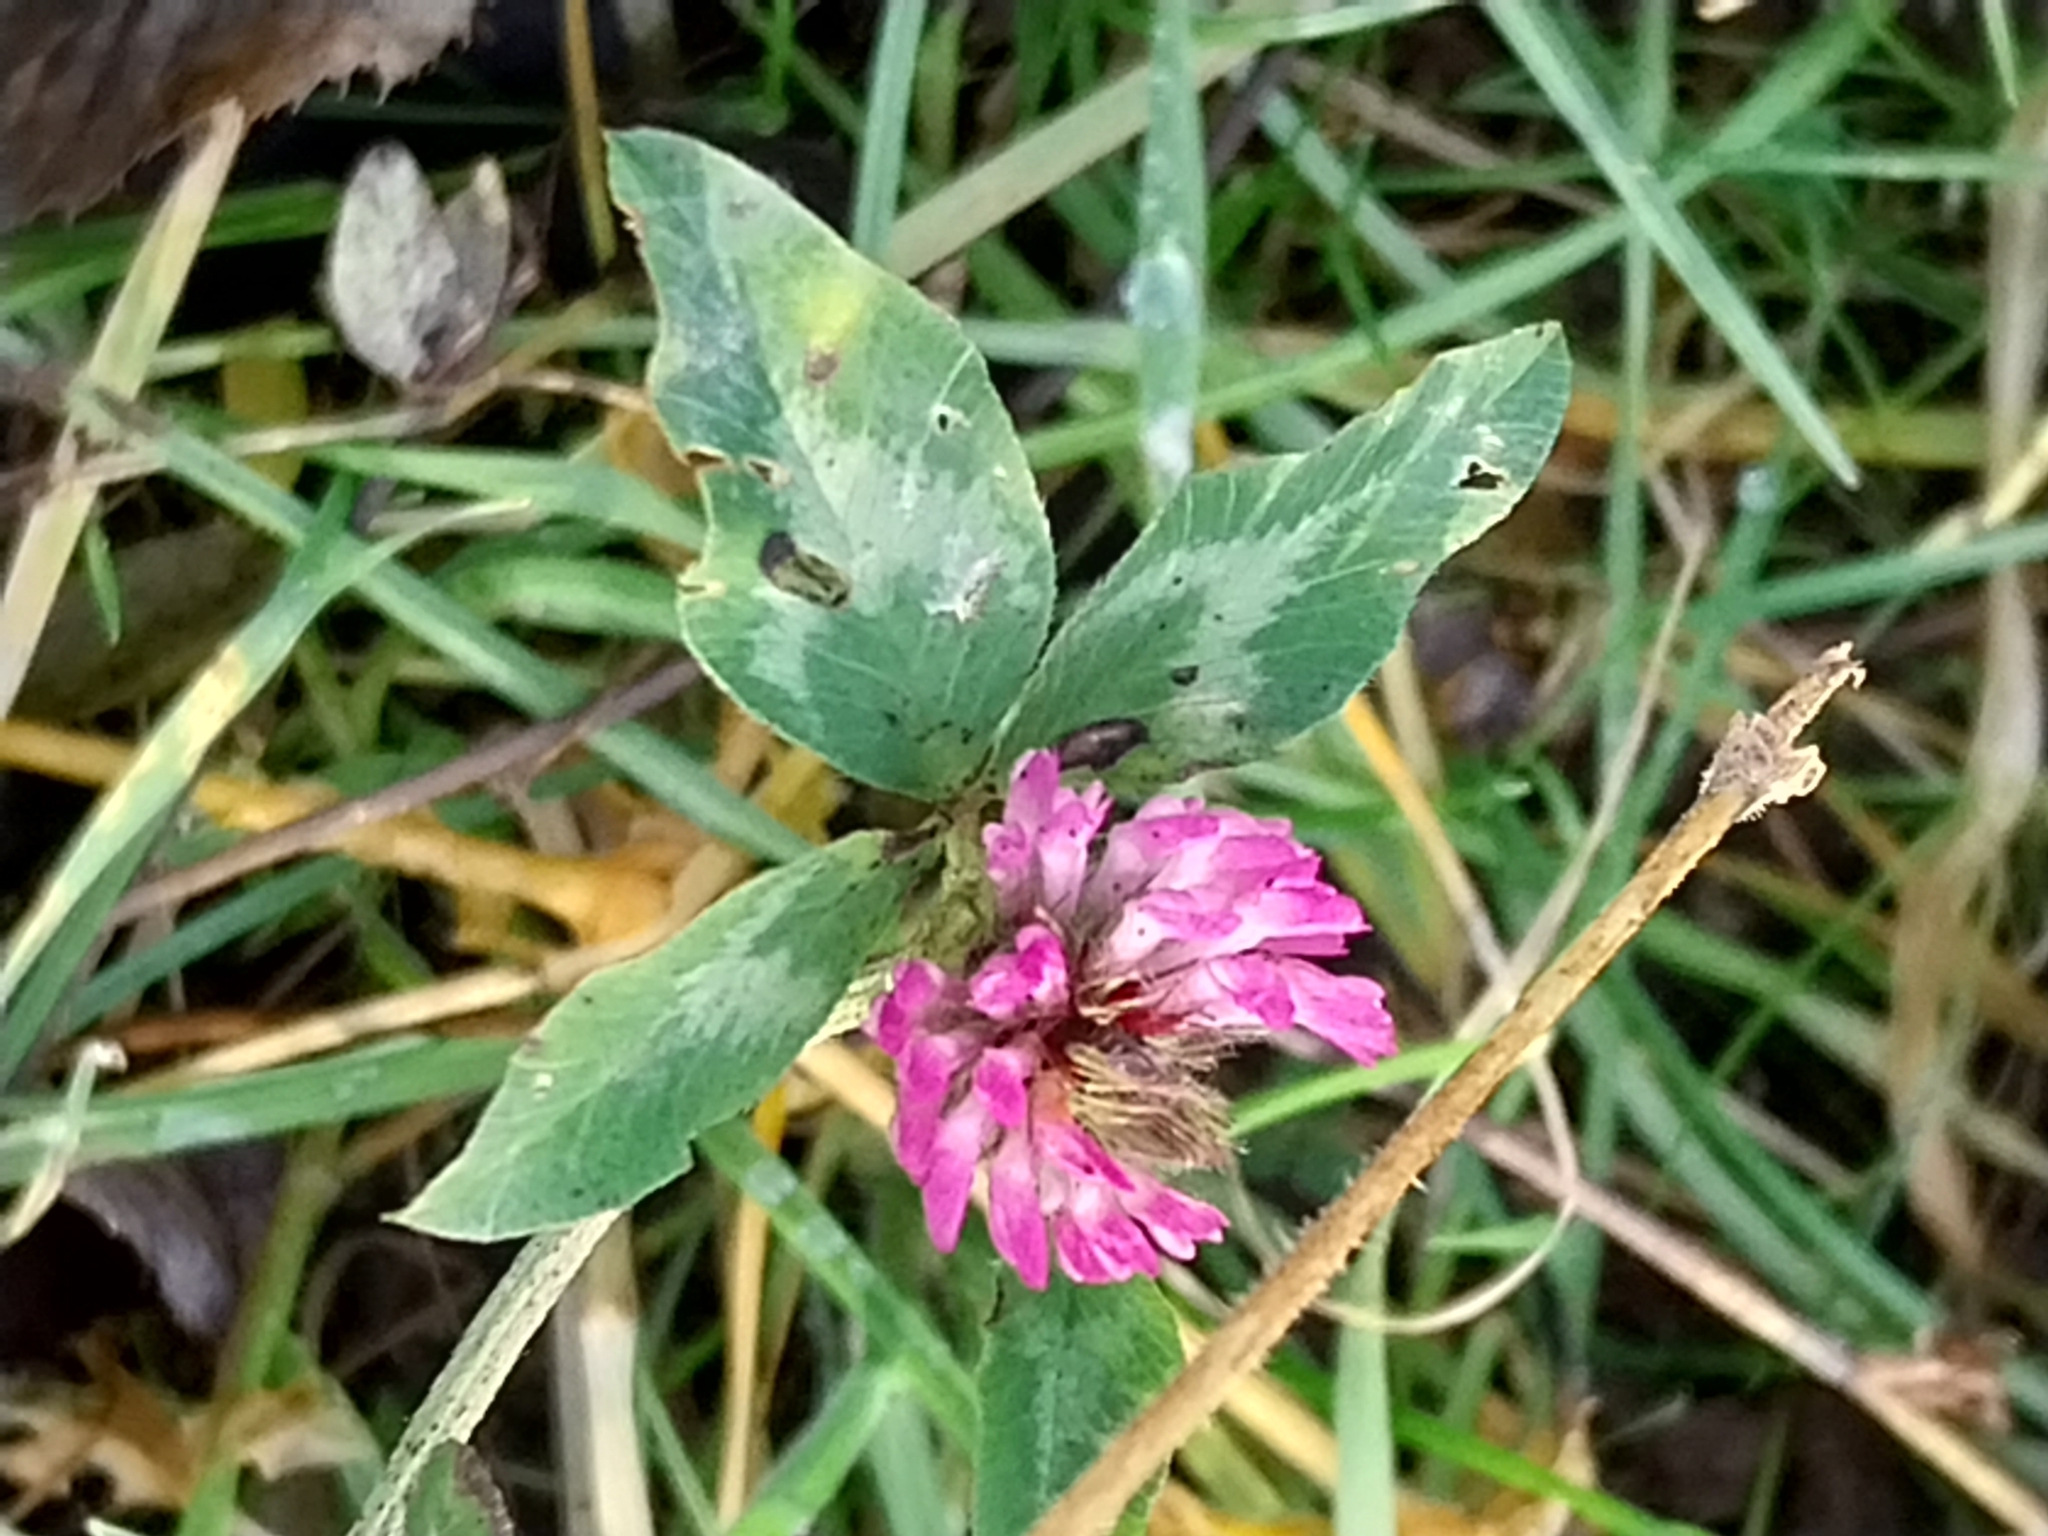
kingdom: Plantae
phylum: Tracheophyta
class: Magnoliopsida
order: Fabales
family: Fabaceae
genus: Trifolium
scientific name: Trifolium pratense
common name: Red clover
